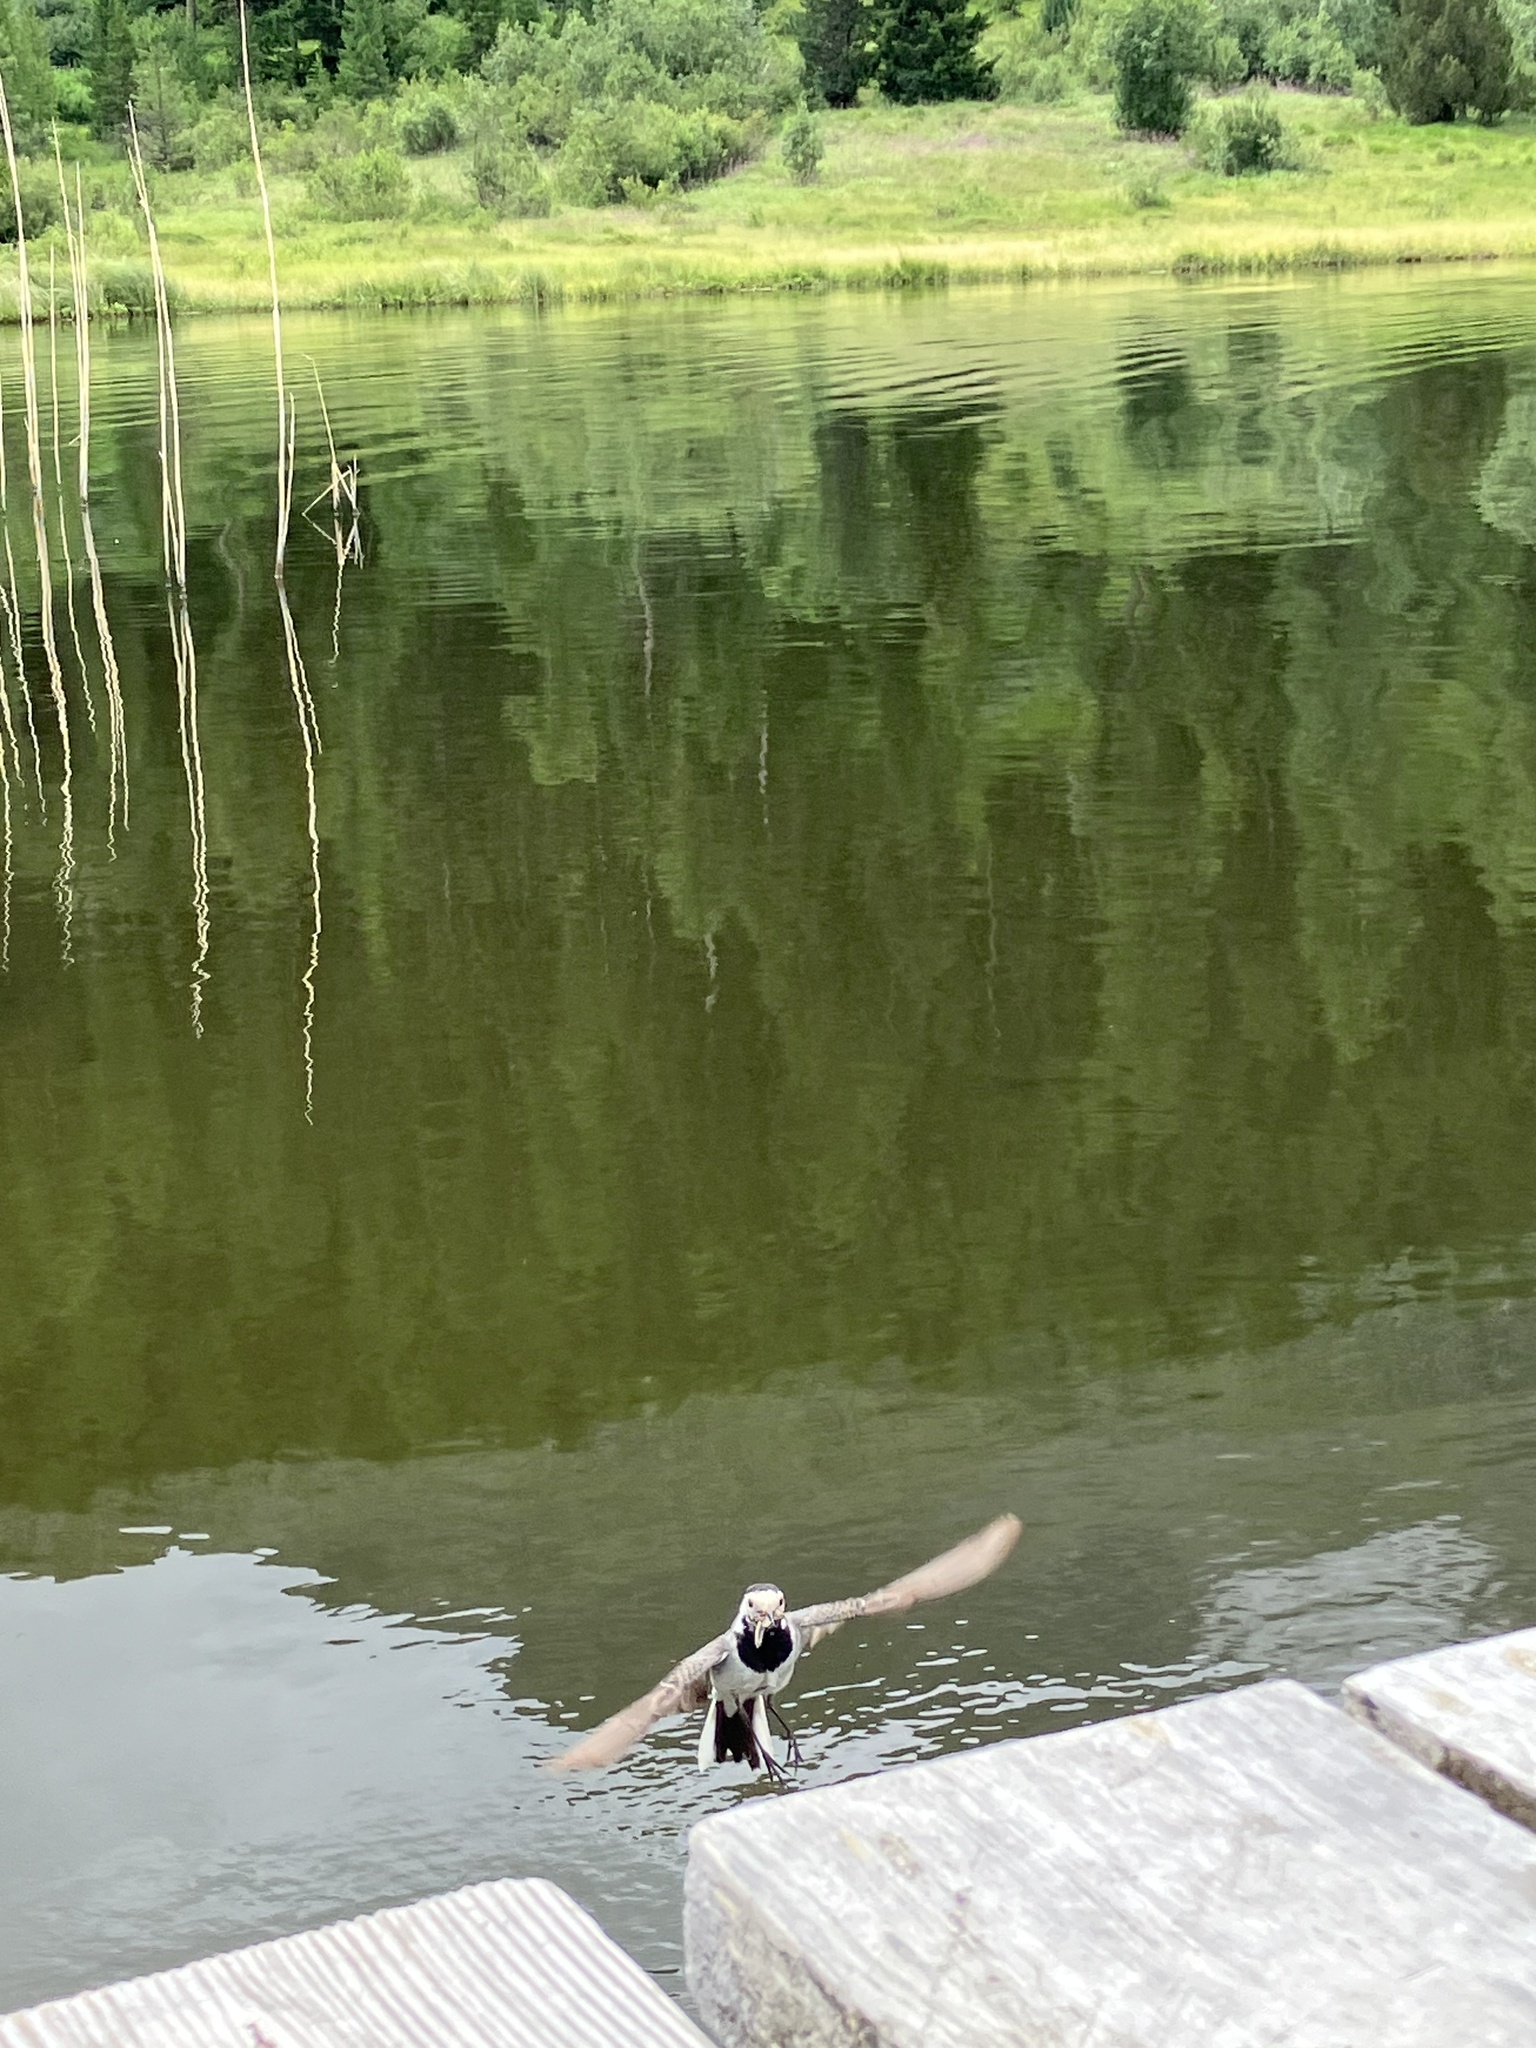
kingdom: Animalia
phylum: Chordata
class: Aves
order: Passeriformes
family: Motacillidae
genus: Motacilla
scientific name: Motacilla alba
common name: White wagtail
